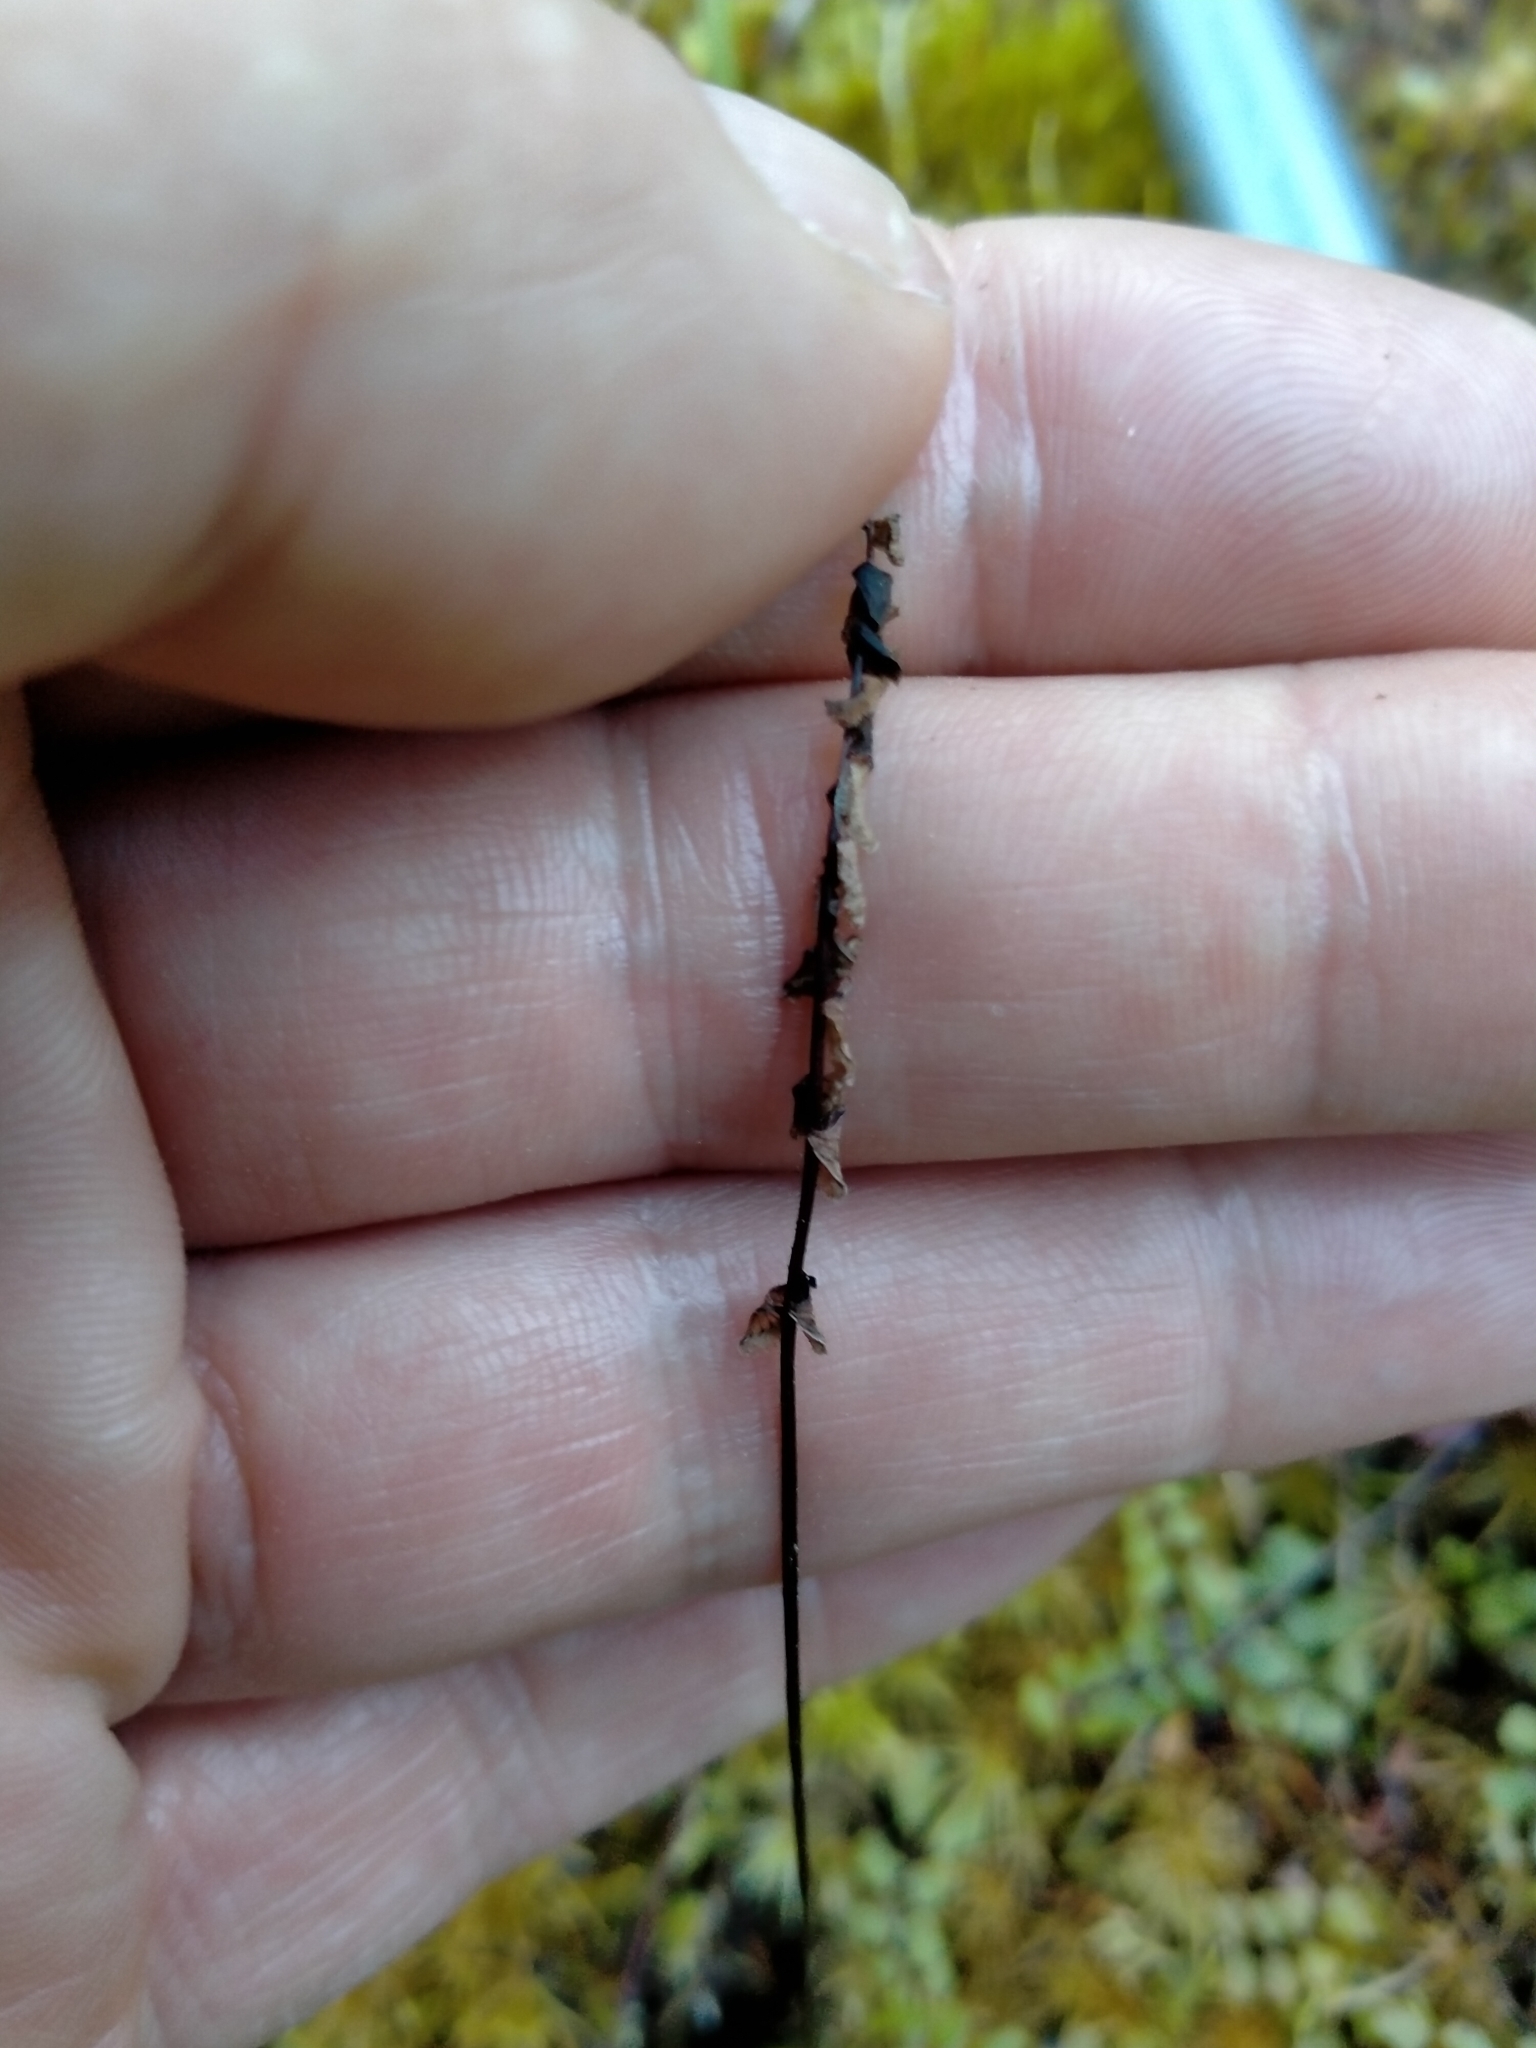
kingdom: Plantae
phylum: Tracheophyta
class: Polypodiopsida
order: Polypodiales
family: Lindsaeaceae
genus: Lindsaea
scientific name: Lindsaea linearis
